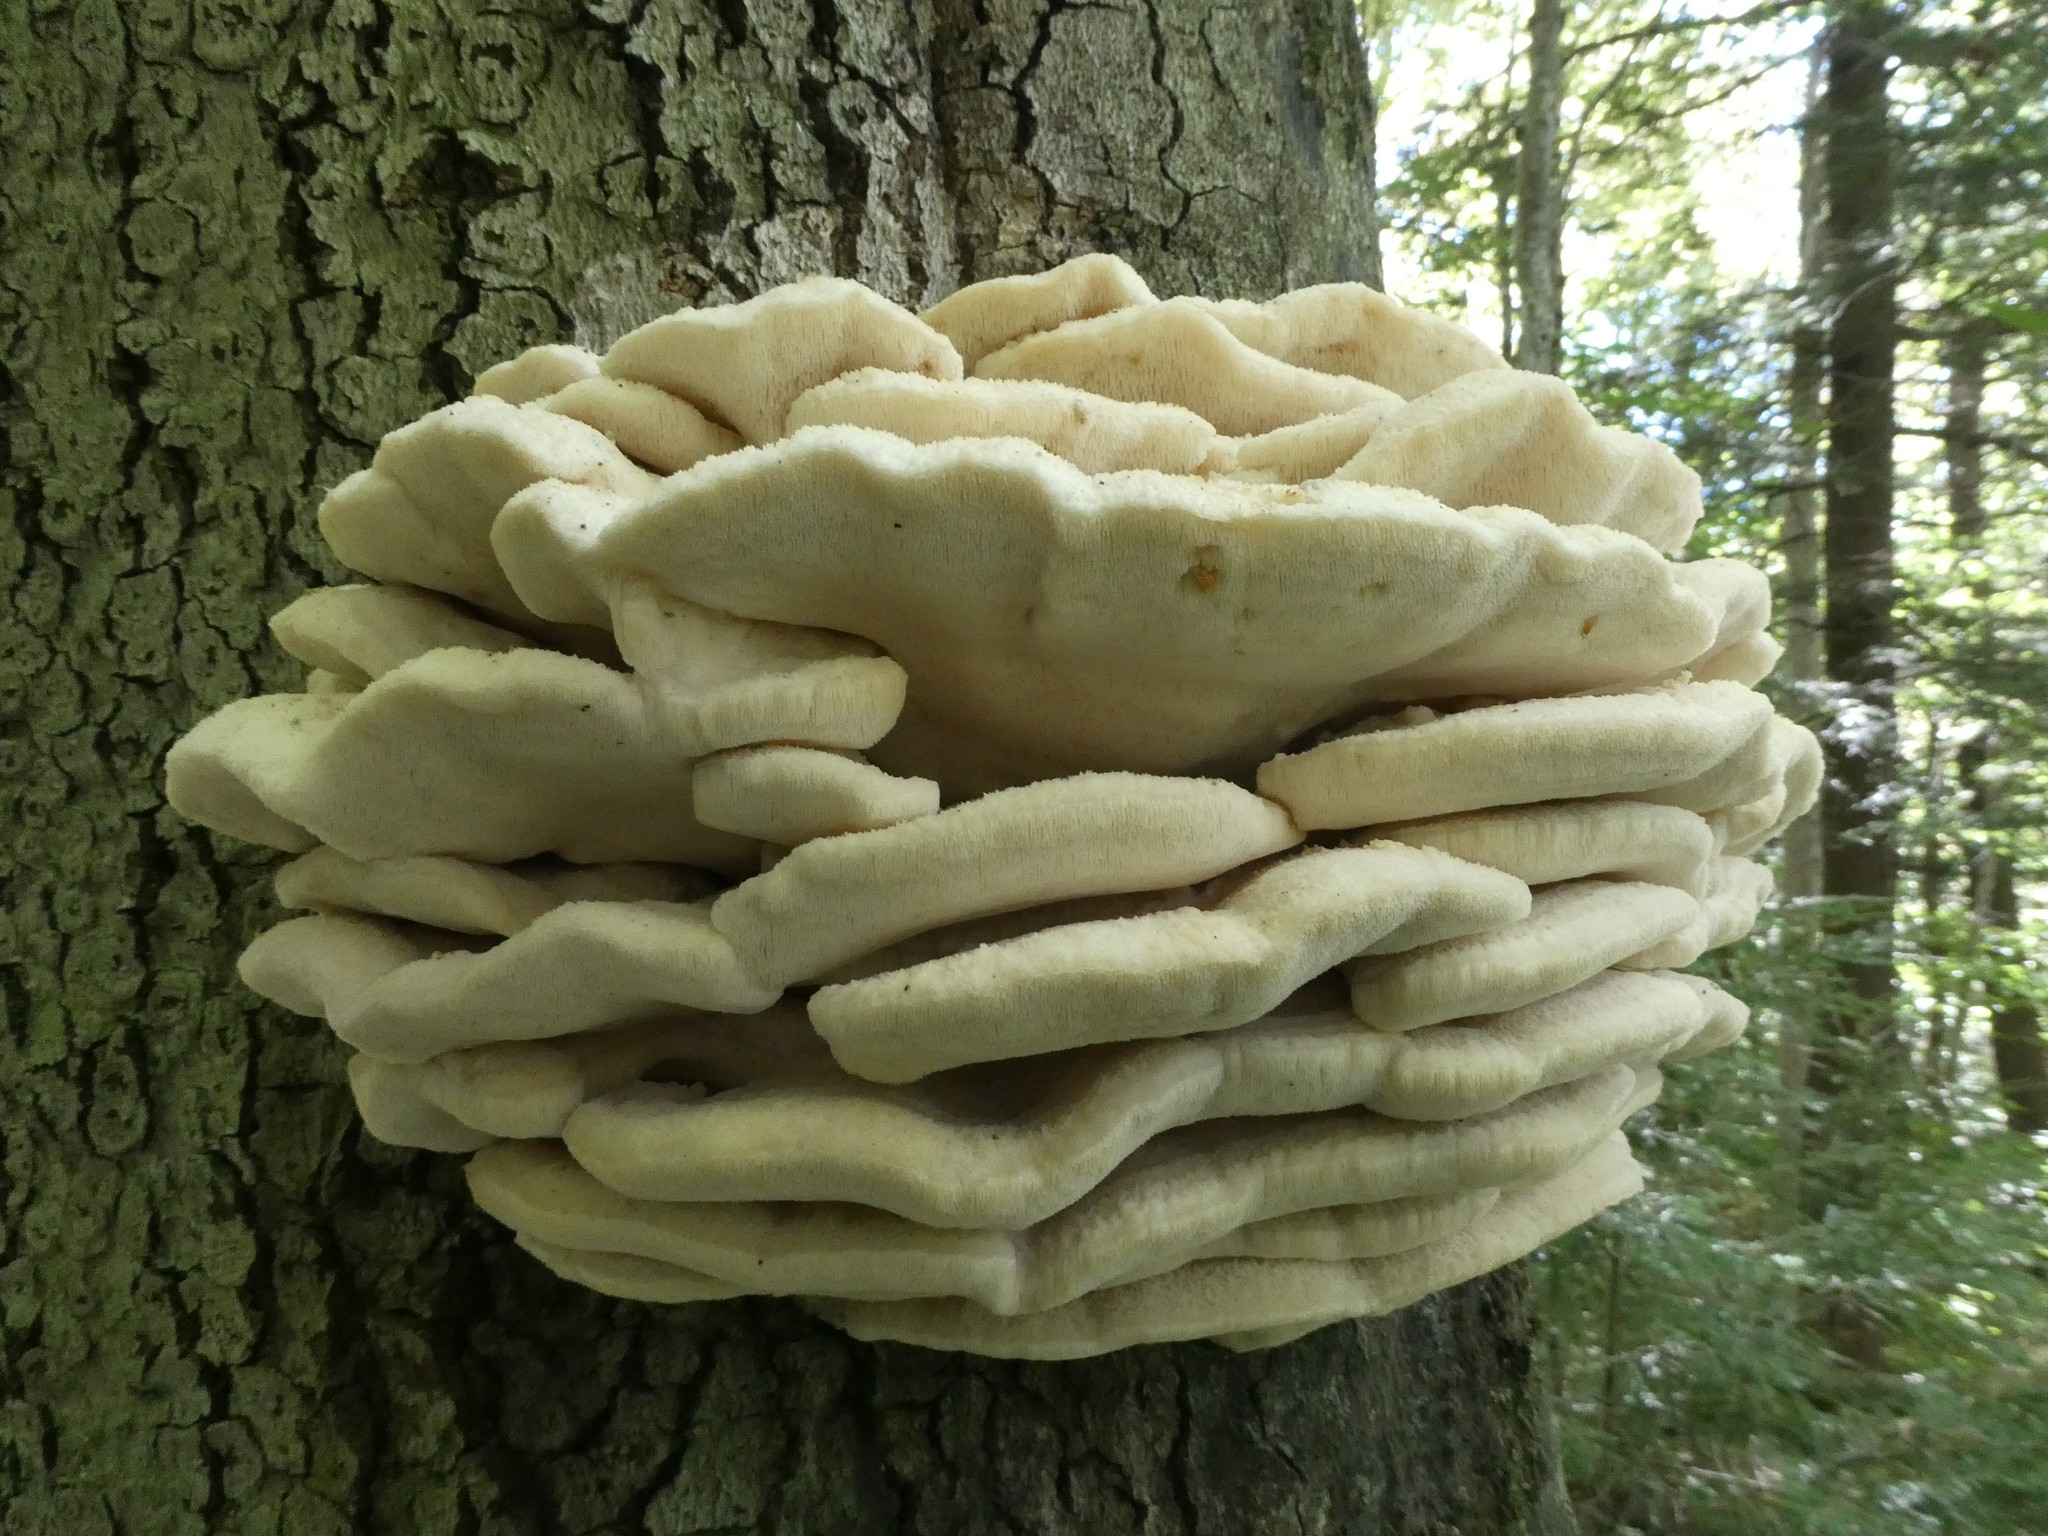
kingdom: Fungi
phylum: Basidiomycota
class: Agaricomycetes
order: Polyporales
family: Meruliaceae
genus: Climacodon
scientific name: Climacodon septentrionalis
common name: Northern tooth
